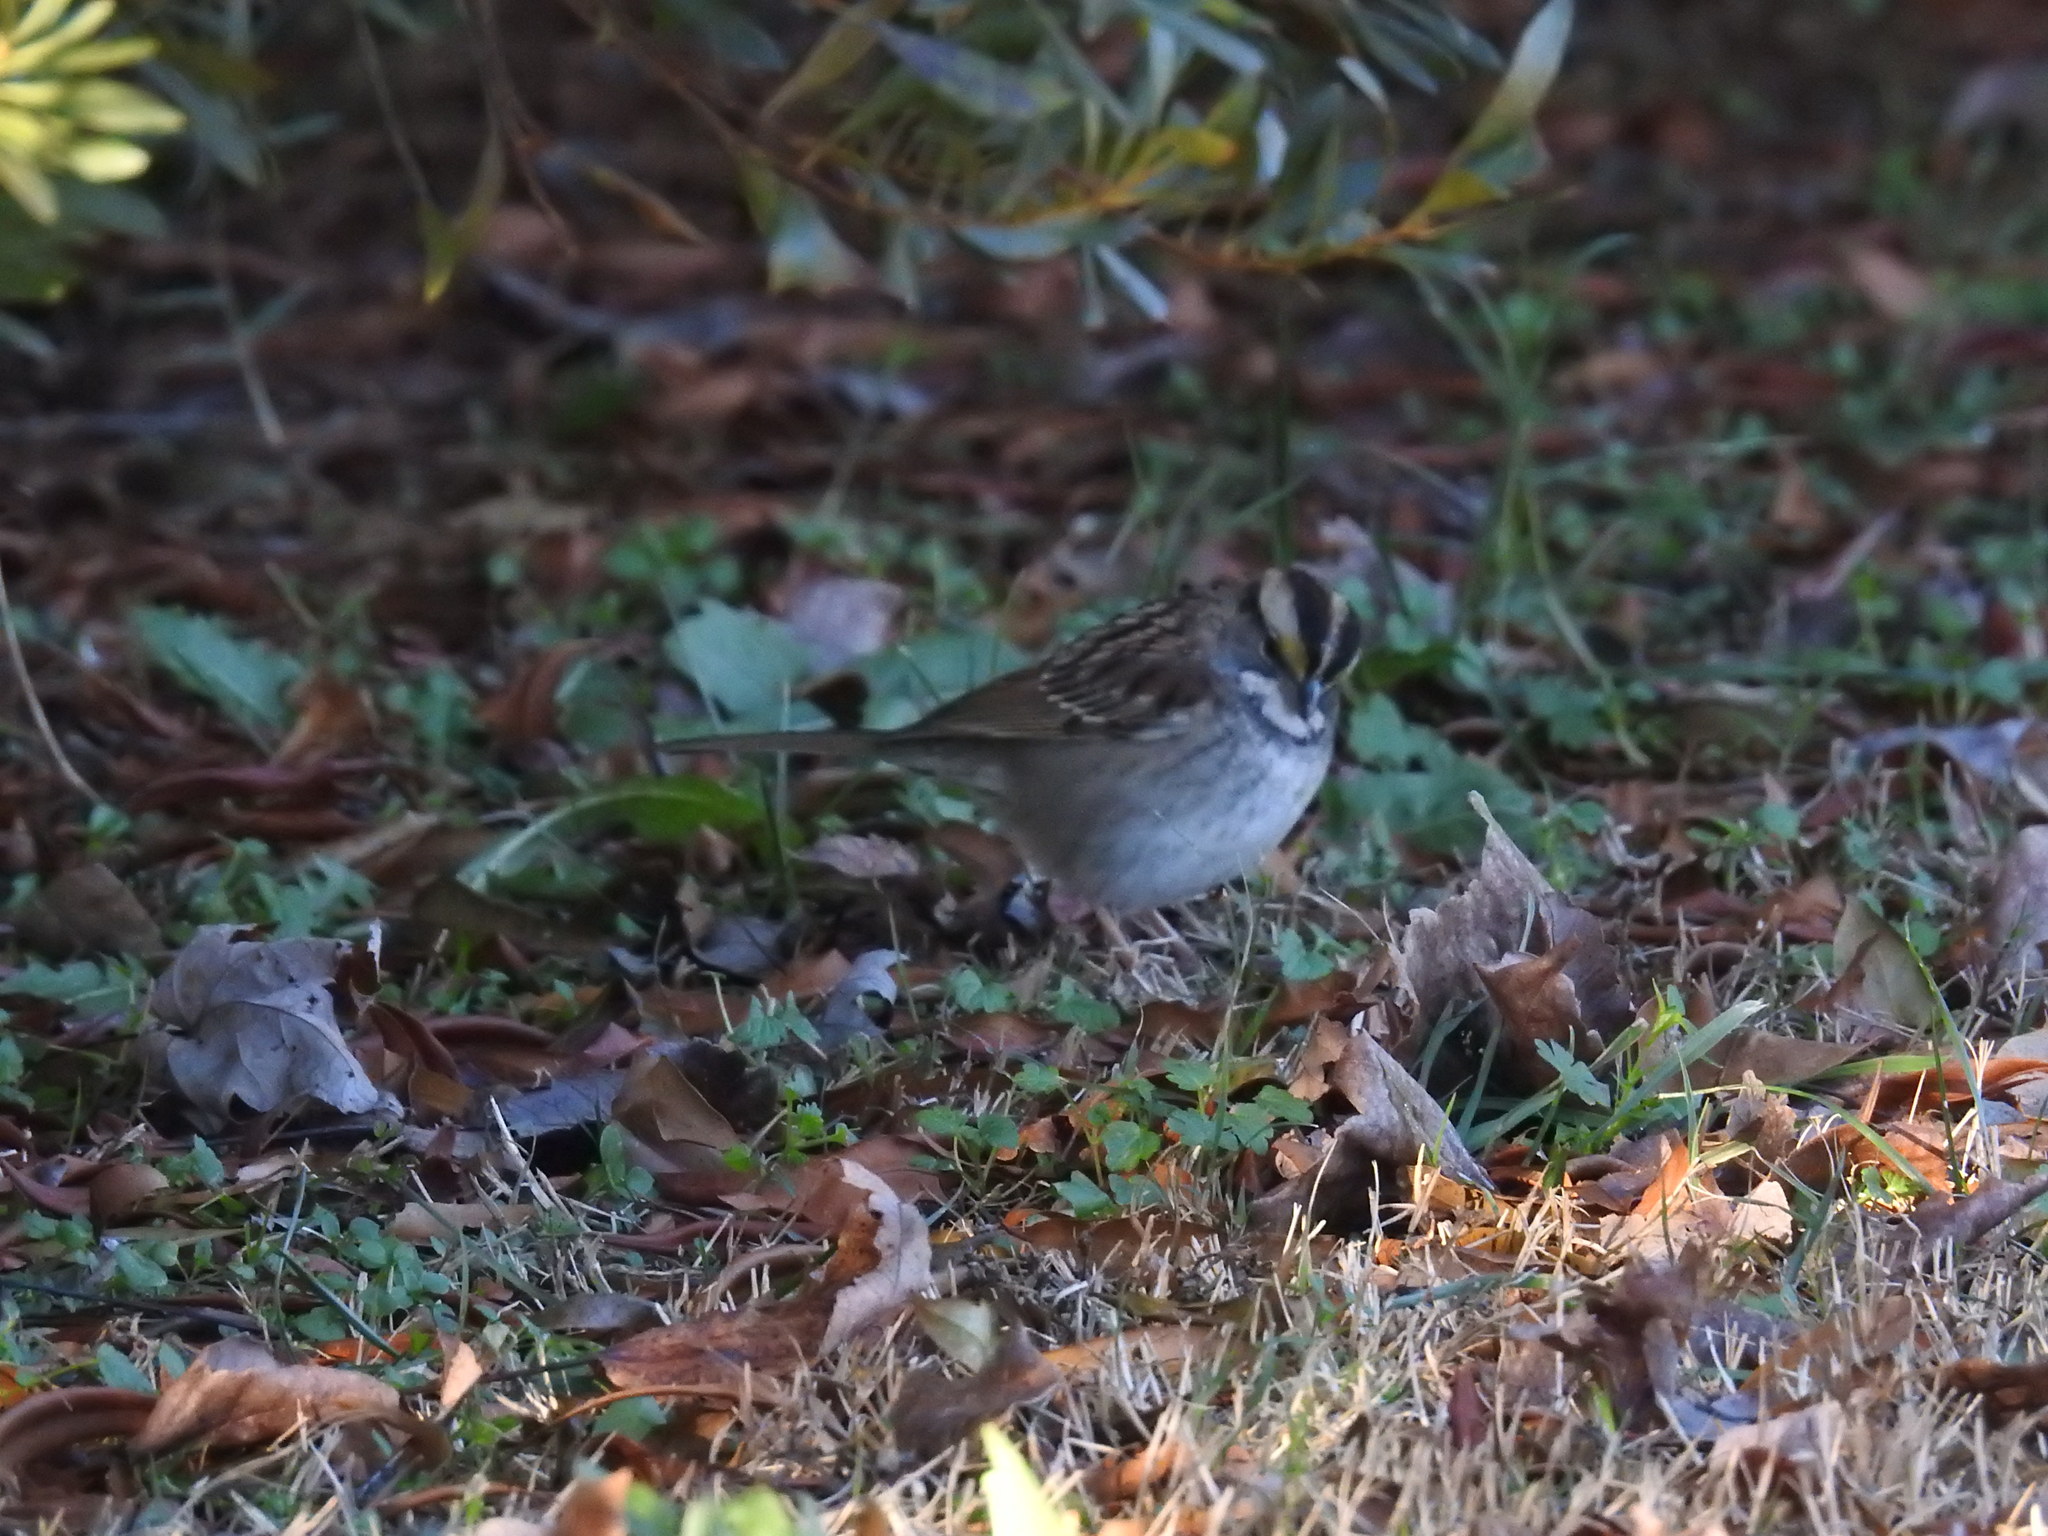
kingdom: Animalia
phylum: Chordata
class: Aves
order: Passeriformes
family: Passerellidae
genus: Zonotrichia
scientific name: Zonotrichia albicollis
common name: White-throated sparrow
